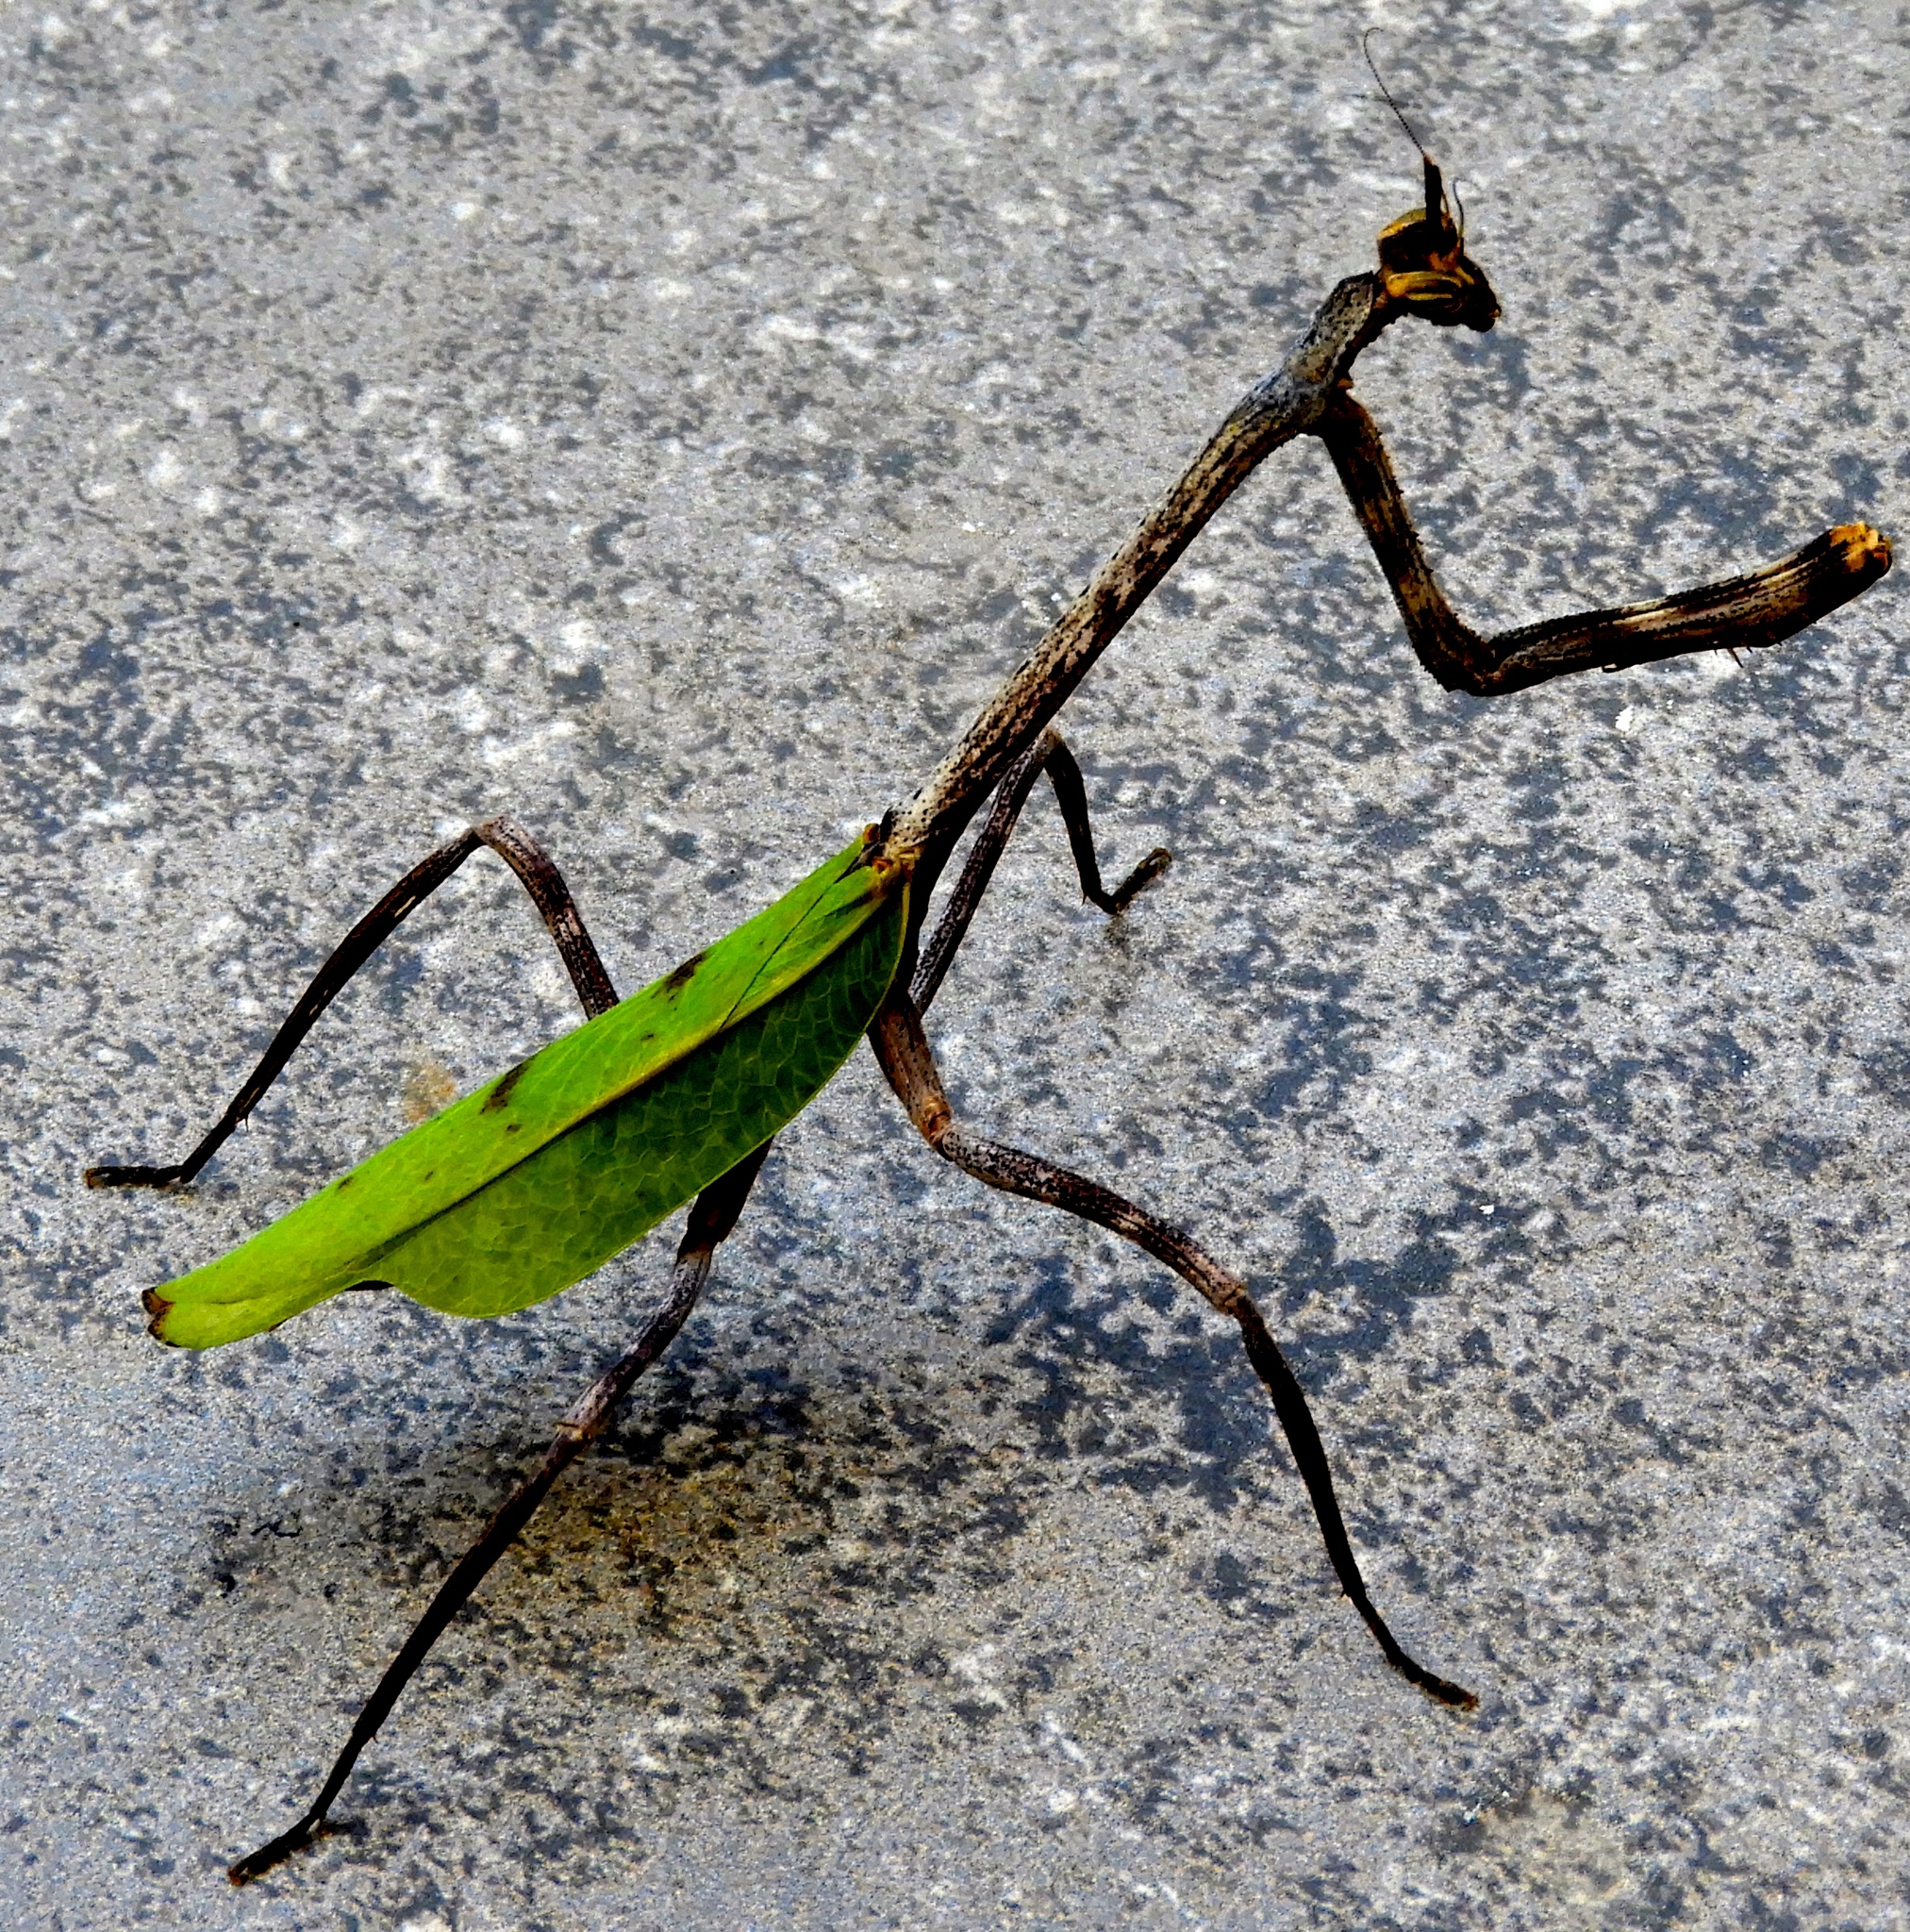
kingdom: Animalia
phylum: Arthropoda
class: Insecta
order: Mantodea
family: Mantidae
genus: Pseudovates
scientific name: Pseudovates chlorophaea
